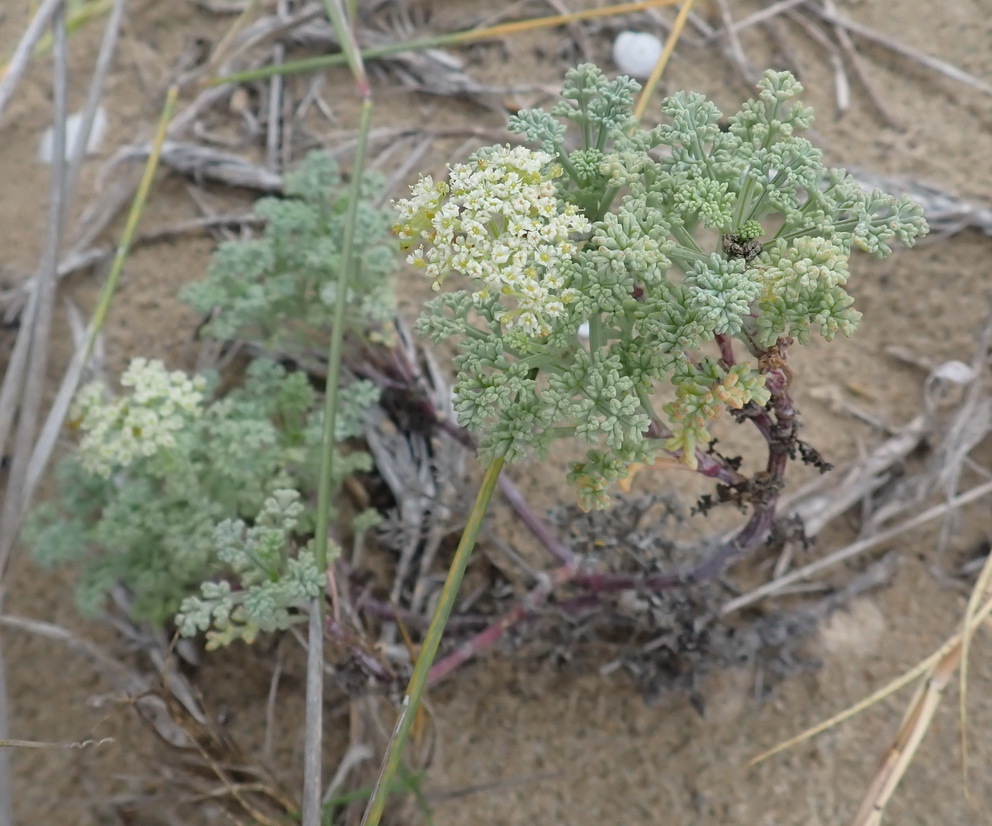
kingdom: Plantae
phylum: Tracheophyta
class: Magnoliopsida
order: Apiales
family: Apiaceae
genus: Dasispermum
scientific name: Dasispermum suffruticosum
